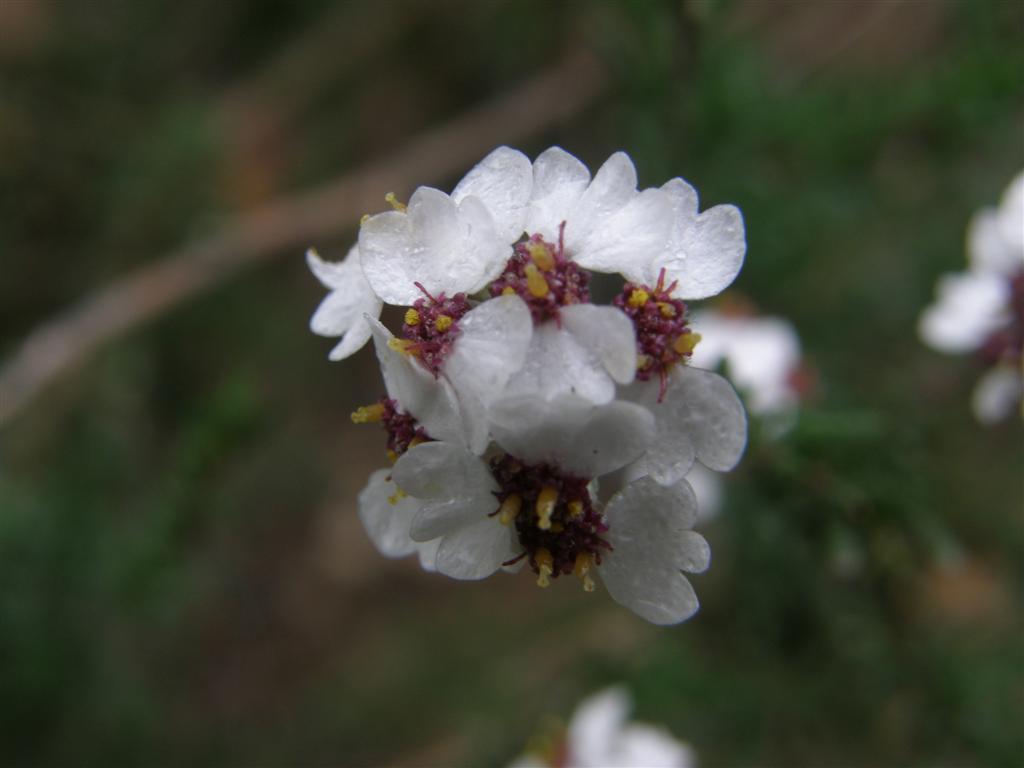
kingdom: Plantae
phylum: Tracheophyta
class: Magnoliopsida
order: Asterales
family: Asteraceae
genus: Eriocephalus
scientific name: Eriocephalus africanus
